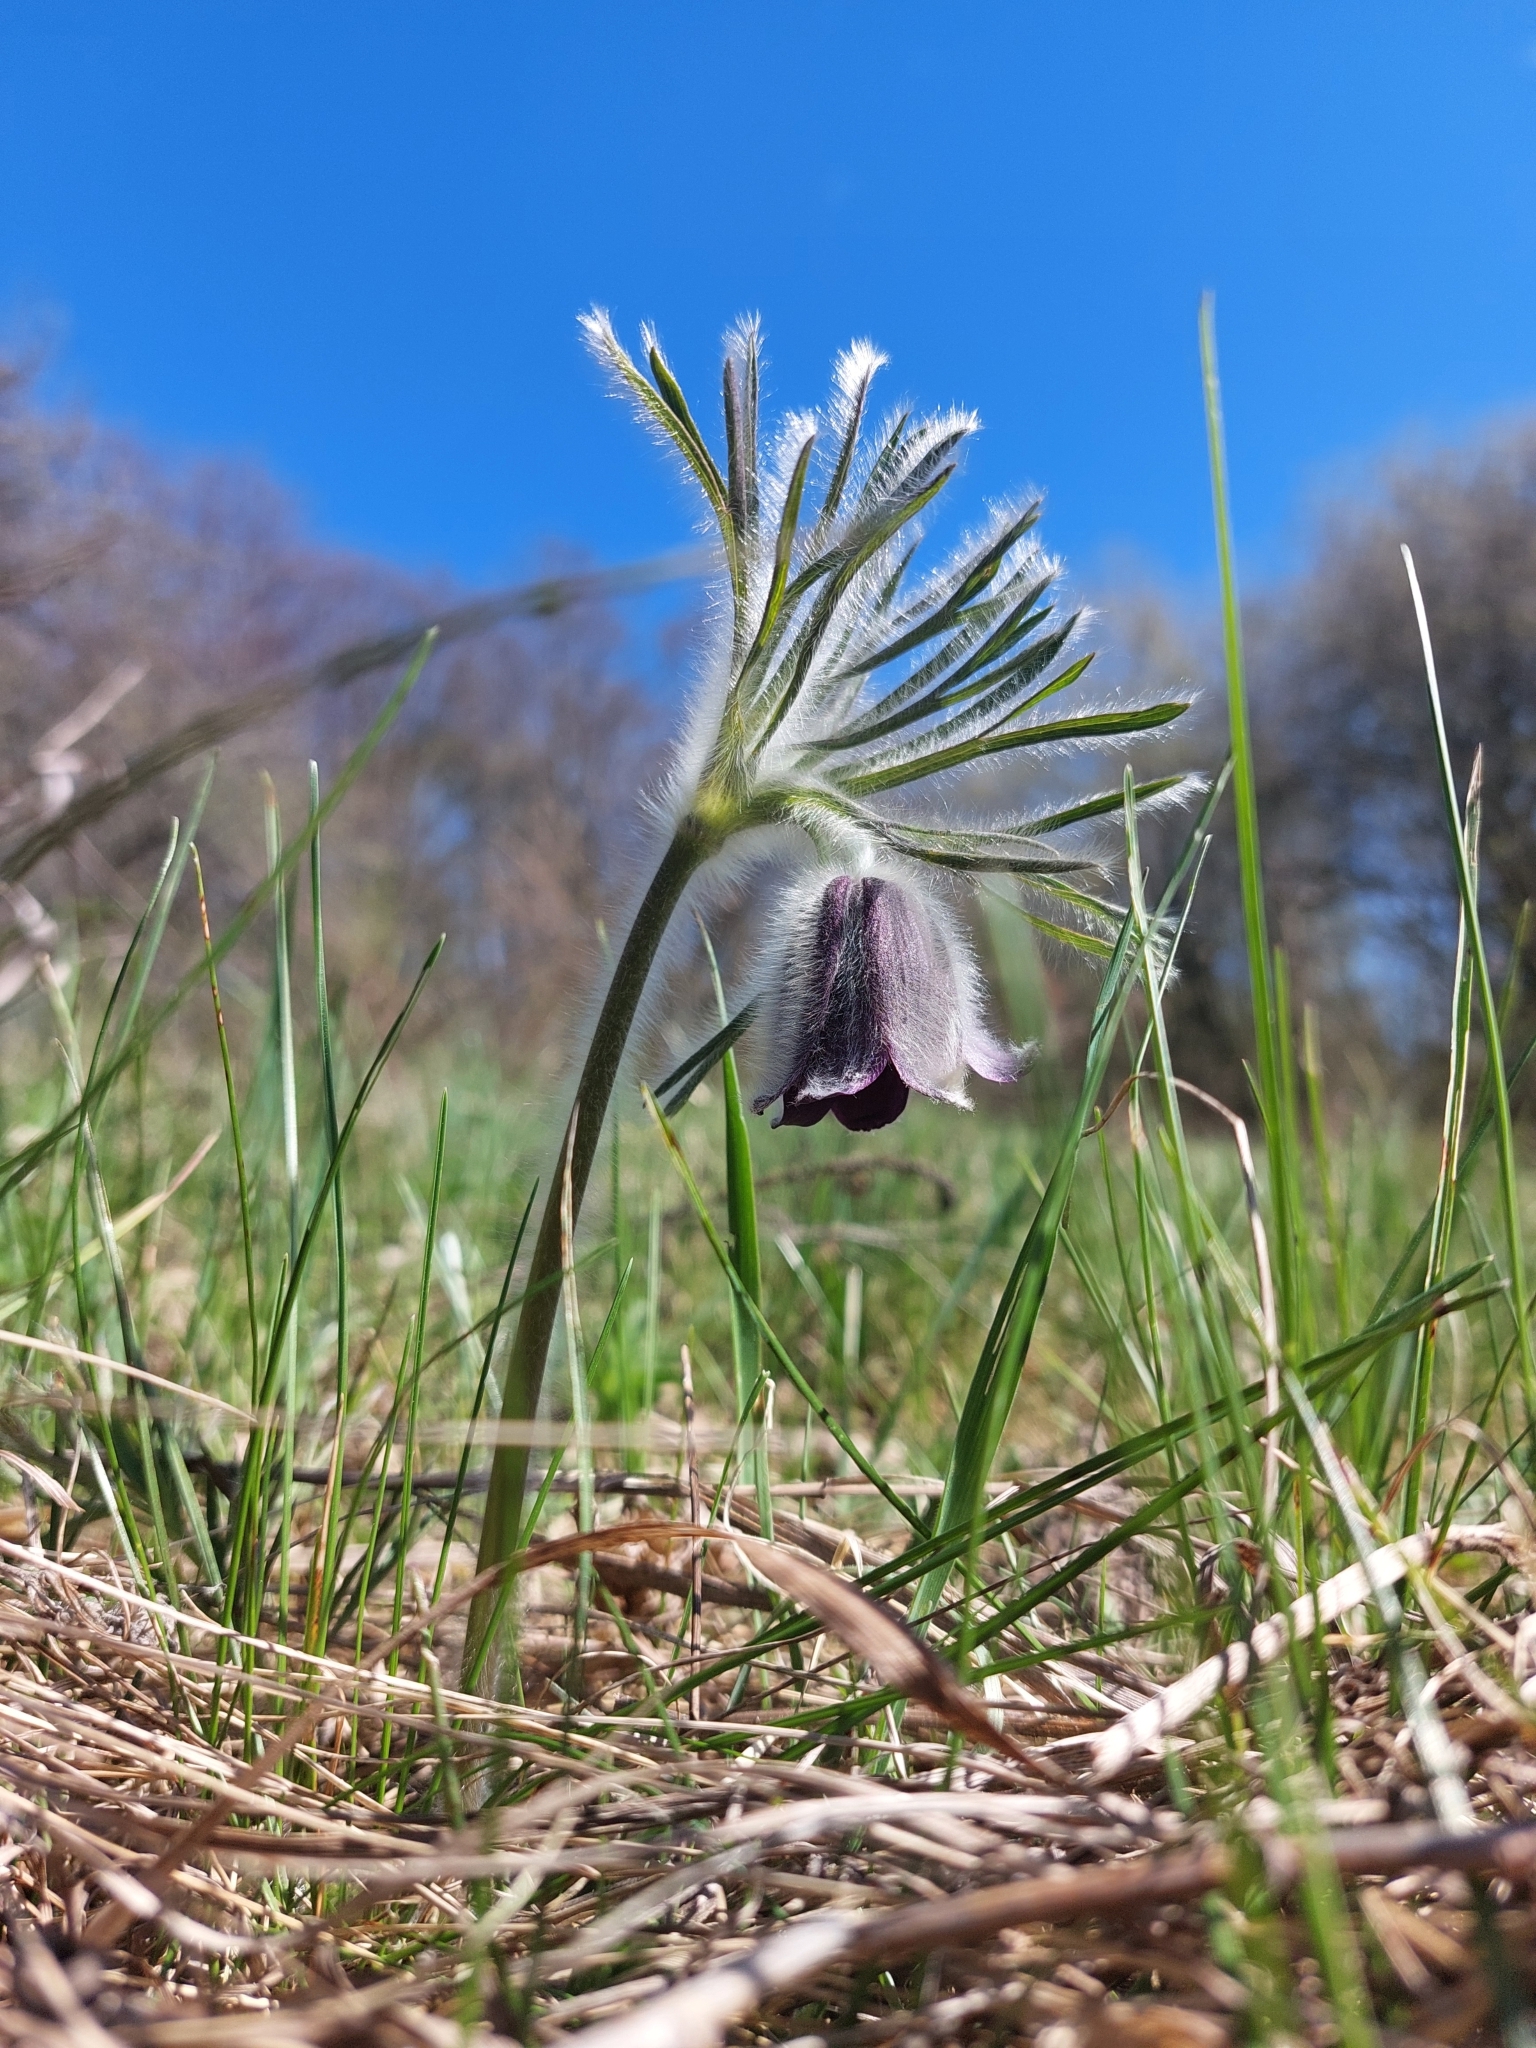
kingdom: Plantae
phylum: Tracheophyta
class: Magnoliopsida
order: Ranunculales
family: Ranunculaceae
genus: Pulsatilla
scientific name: Pulsatilla pratensis
